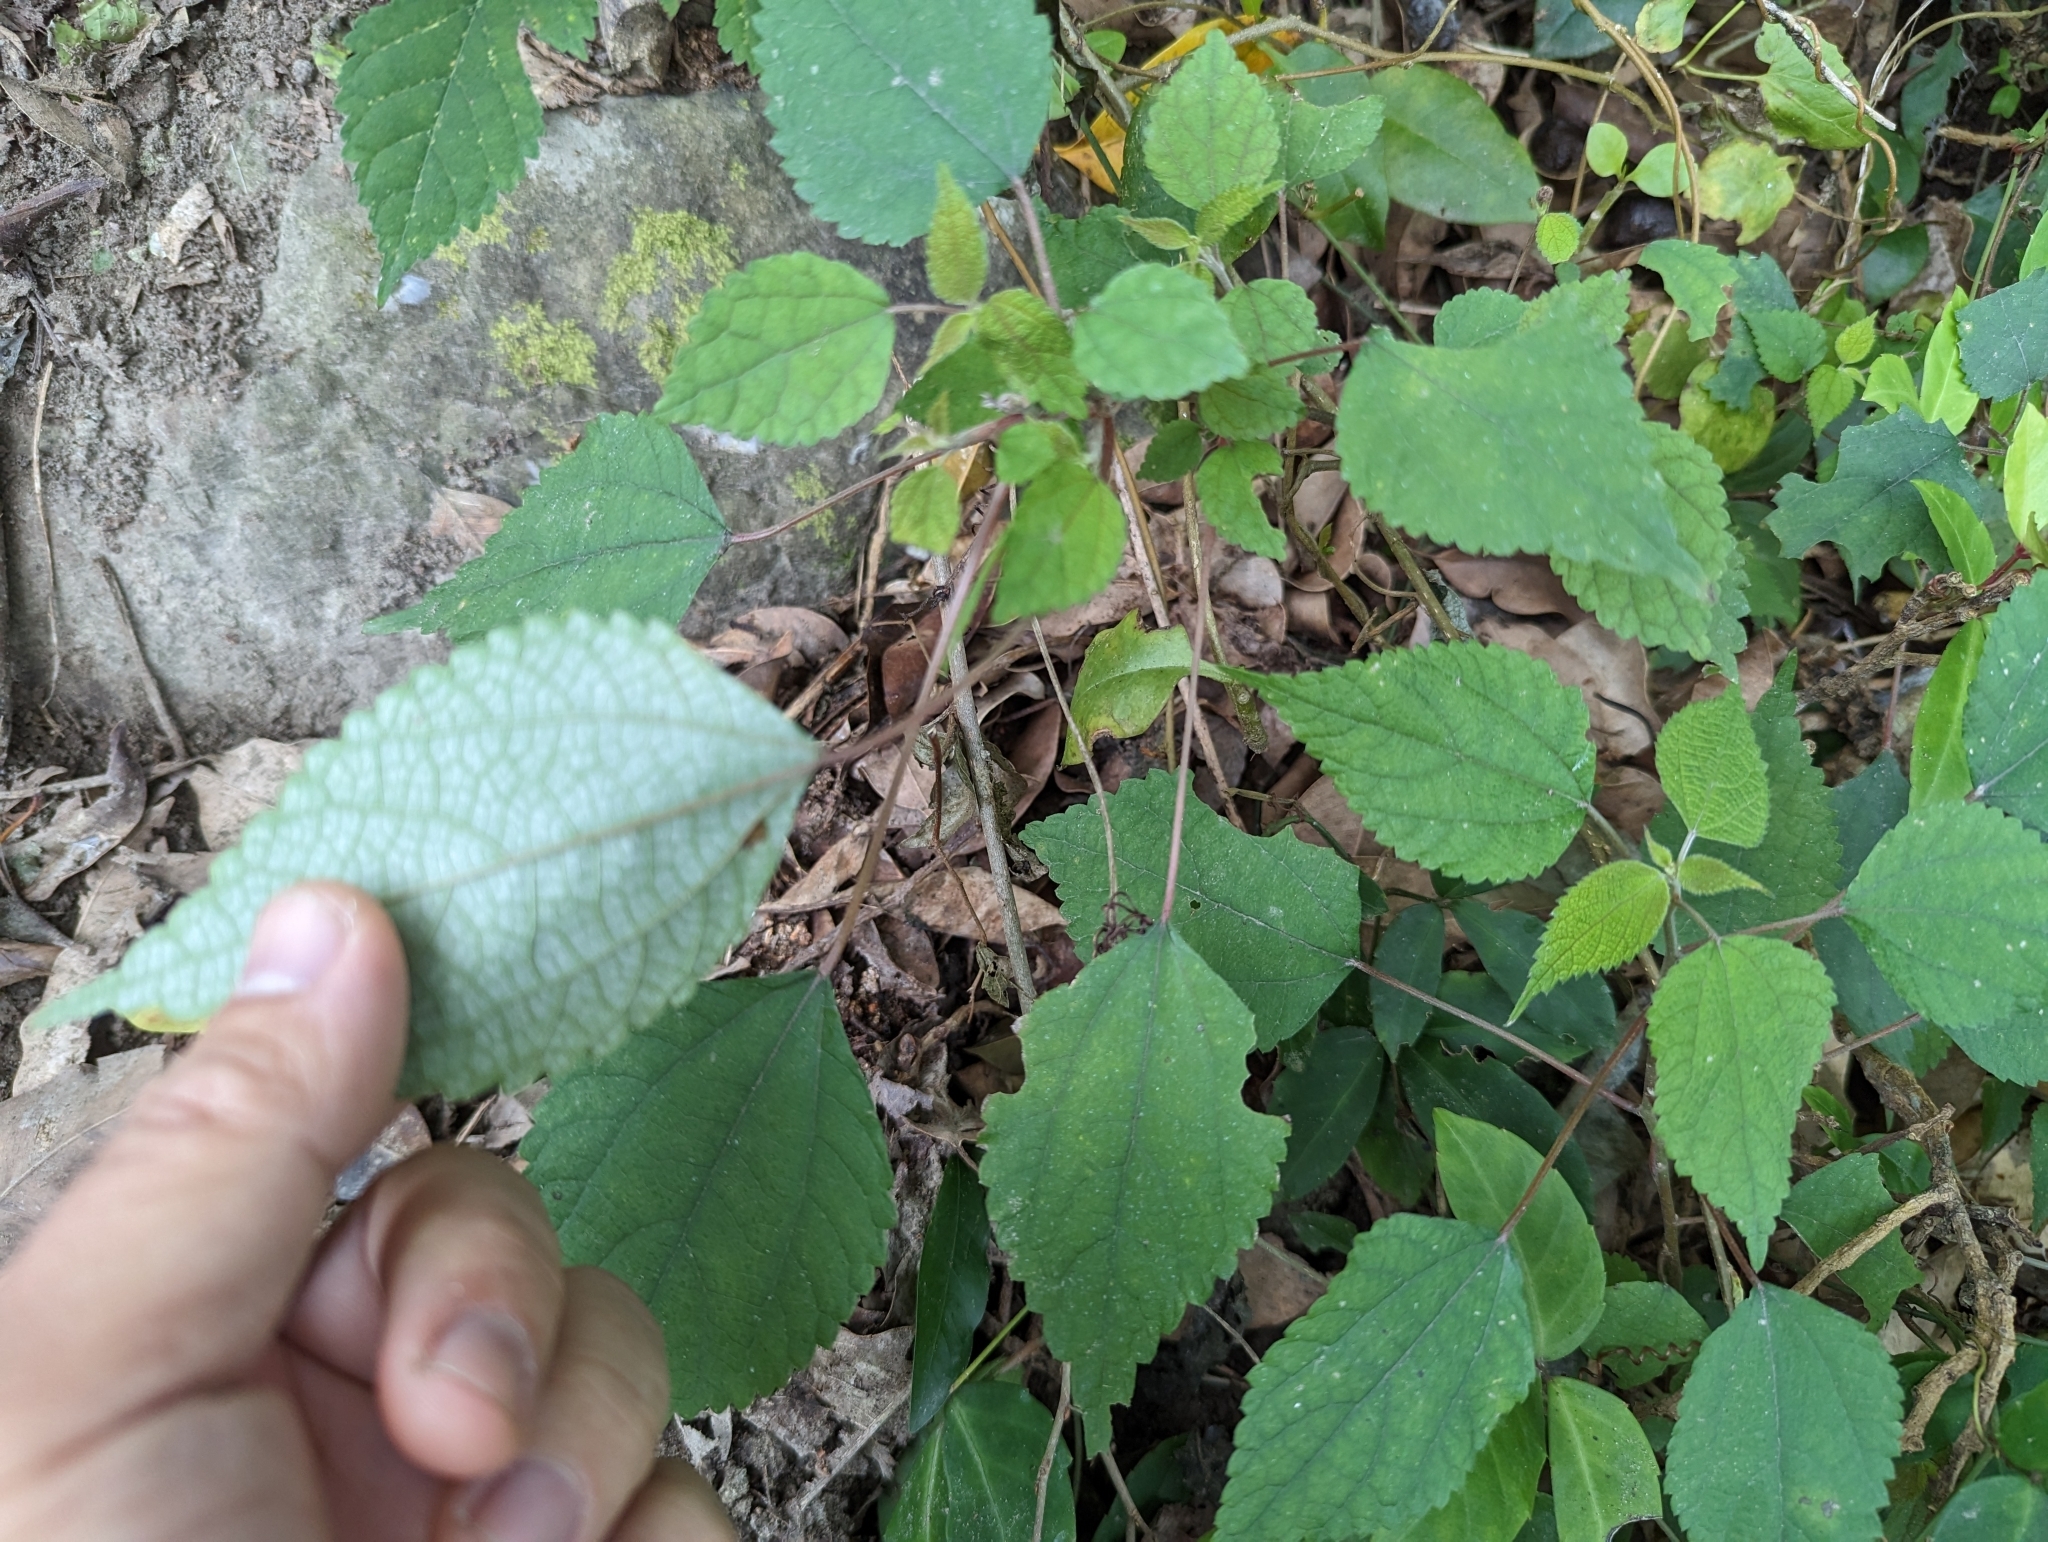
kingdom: Plantae
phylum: Tracheophyta
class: Magnoliopsida
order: Rosales
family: Urticaceae
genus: Boehmeria
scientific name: Boehmeria nivea
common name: Ramie chinese grass
